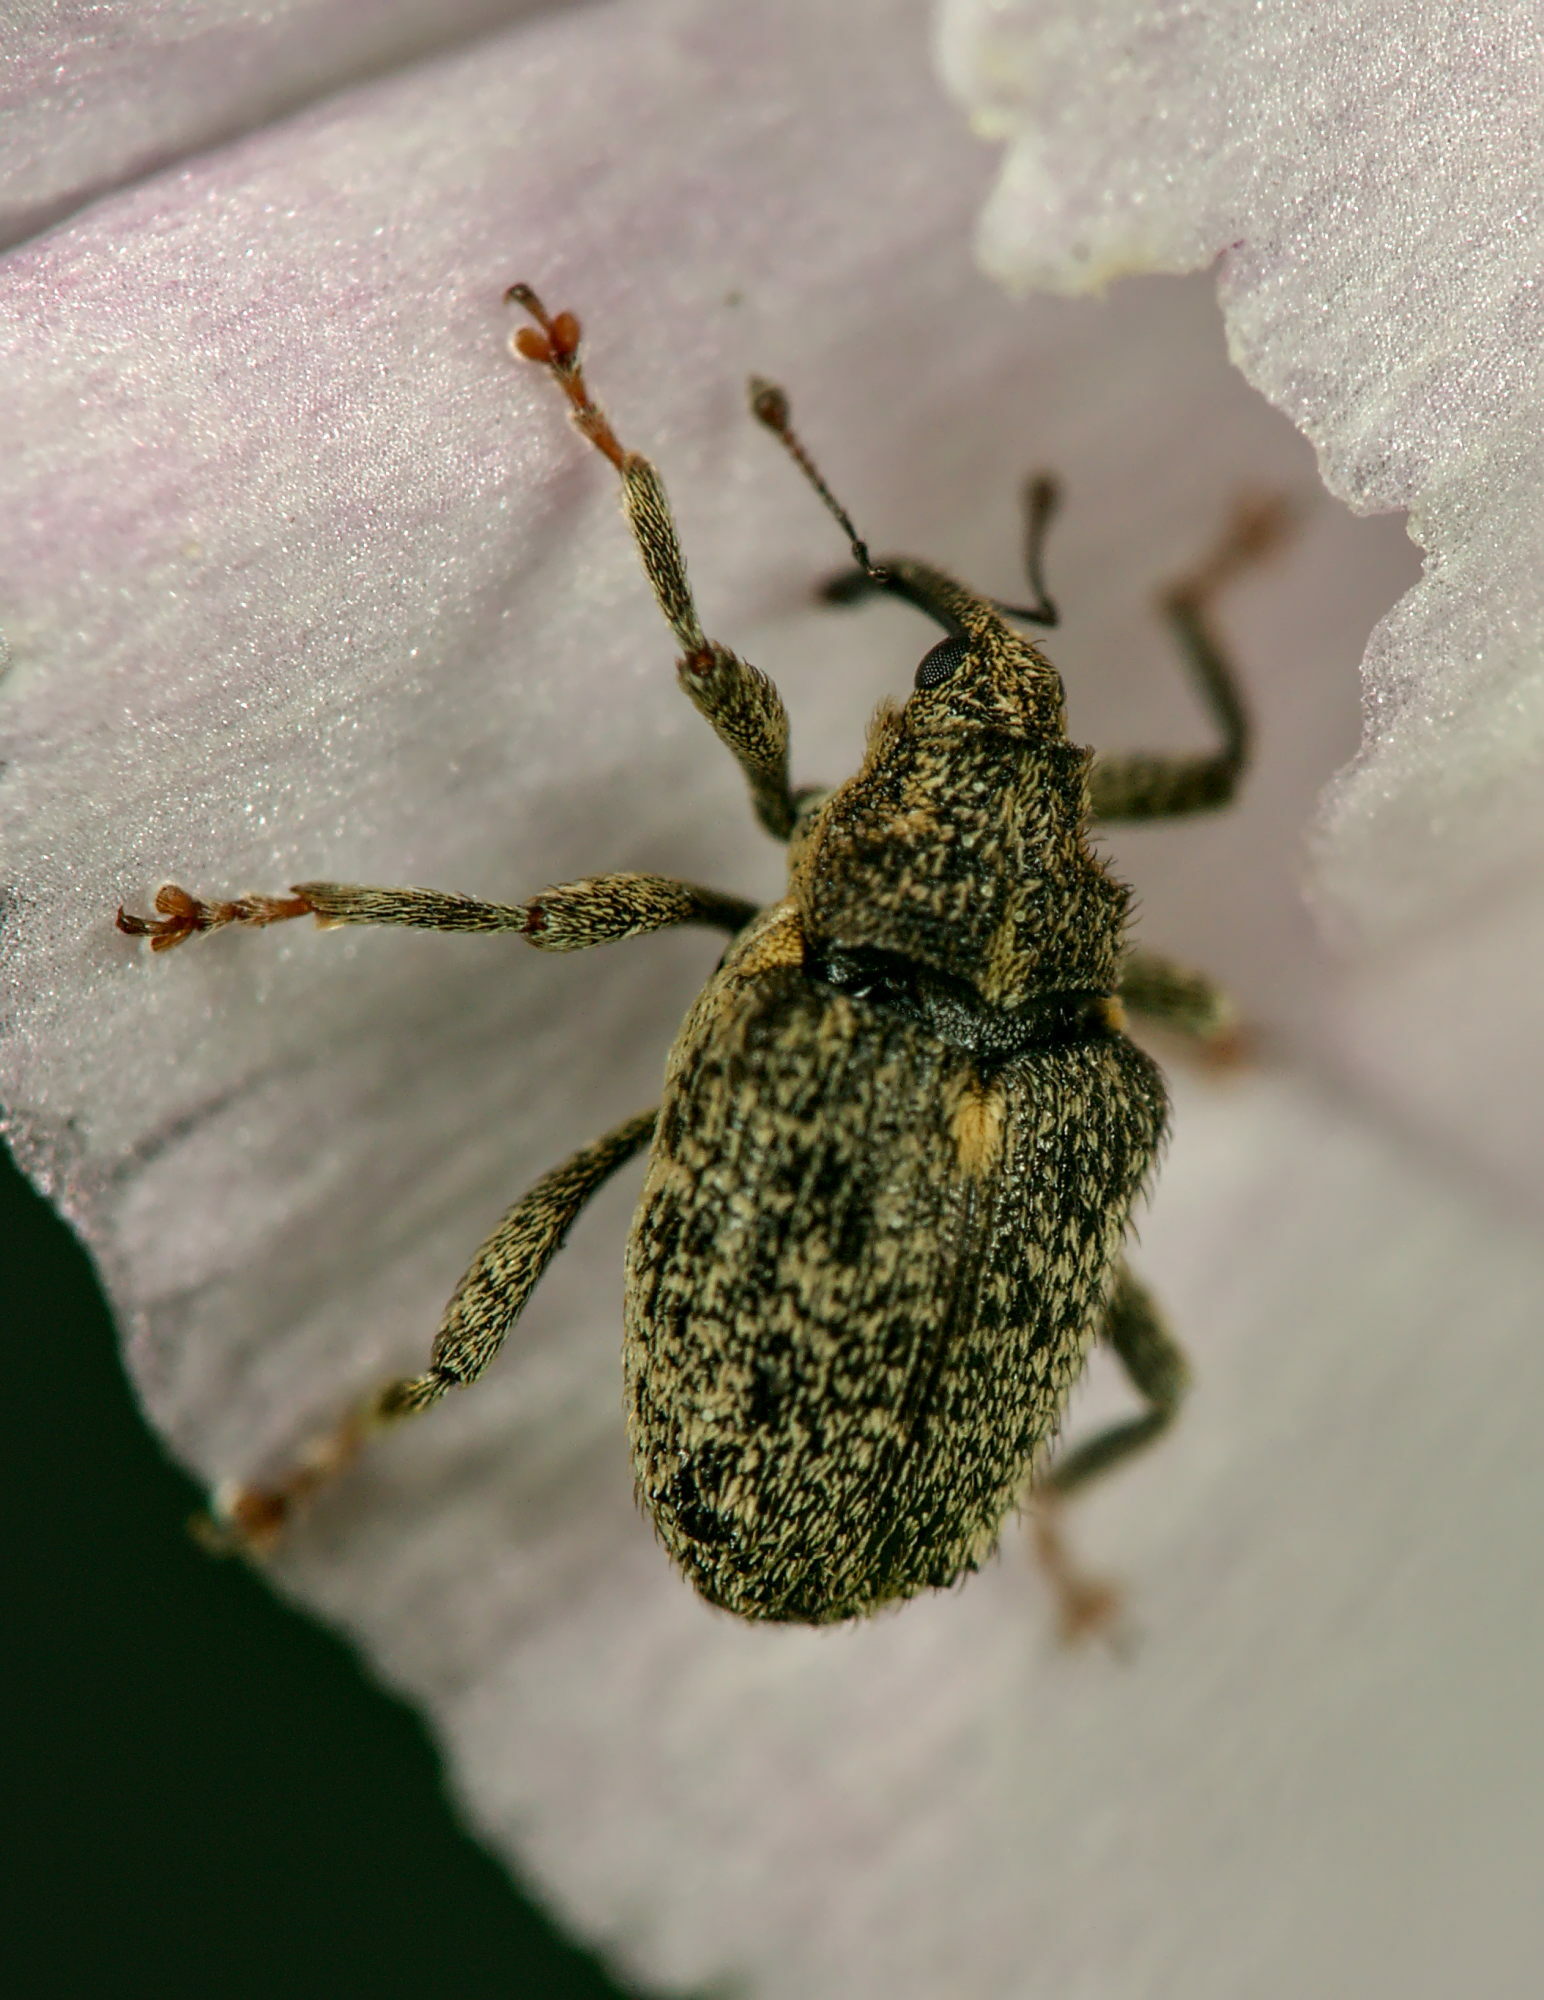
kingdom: Animalia
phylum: Arthropoda
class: Insecta
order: Coleoptera
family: Curculionidae
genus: Ceutorhynchus
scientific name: Ceutorhynchus pallidactylus
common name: Cabbage stem weavil
